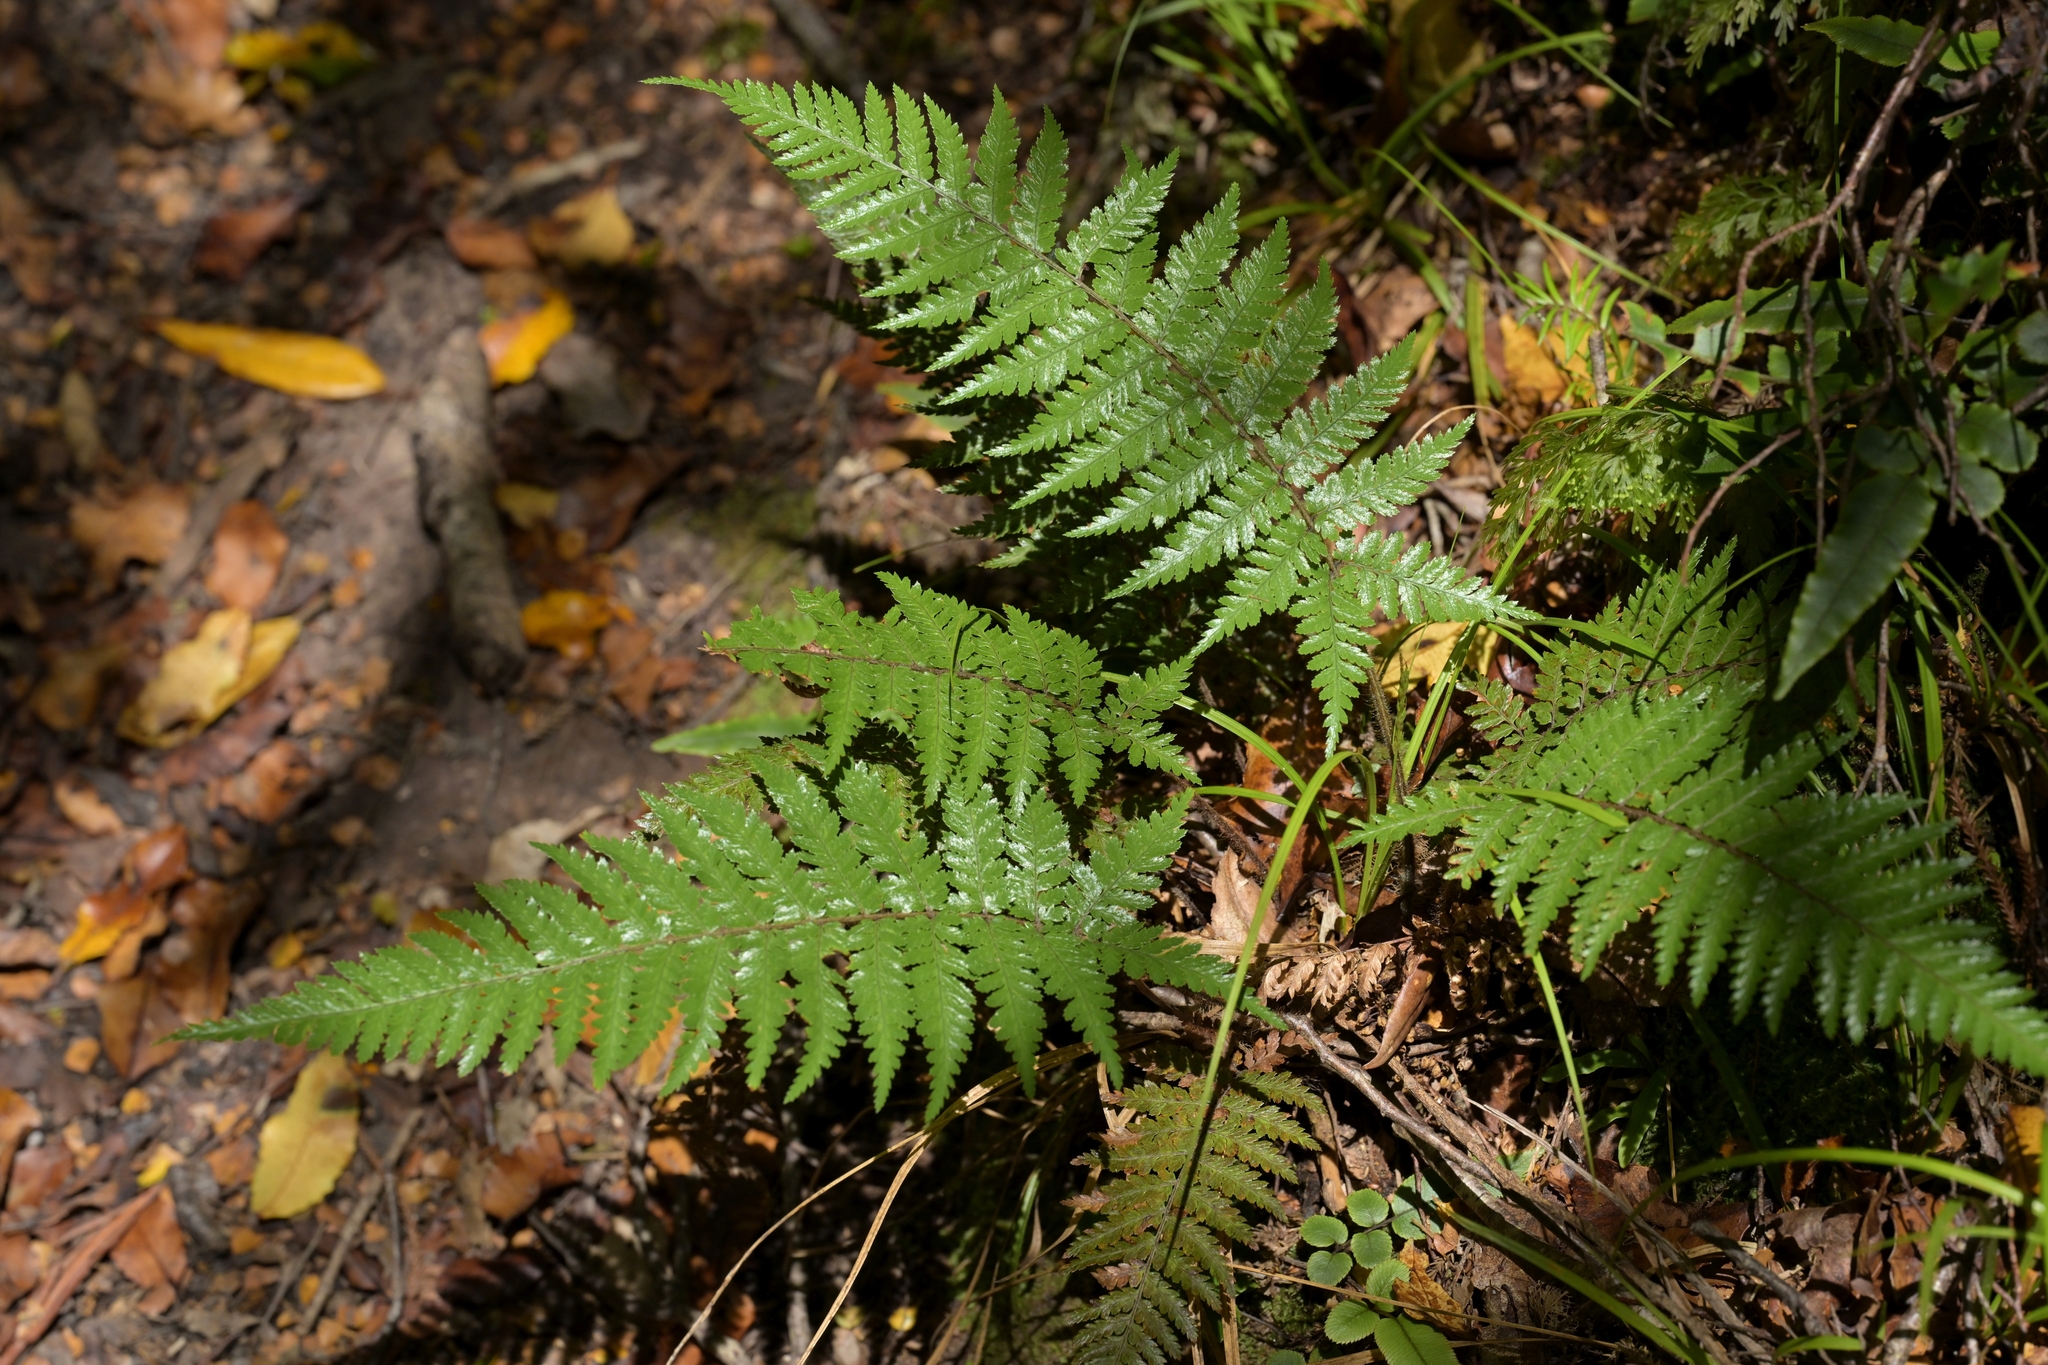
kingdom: Plantae
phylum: Tracheophyta
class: Polypodiopsida
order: Cyatheales
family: Dicksoniaceae
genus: Dicksonia
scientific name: Dicksonia squarrosa
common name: Hard treefern
